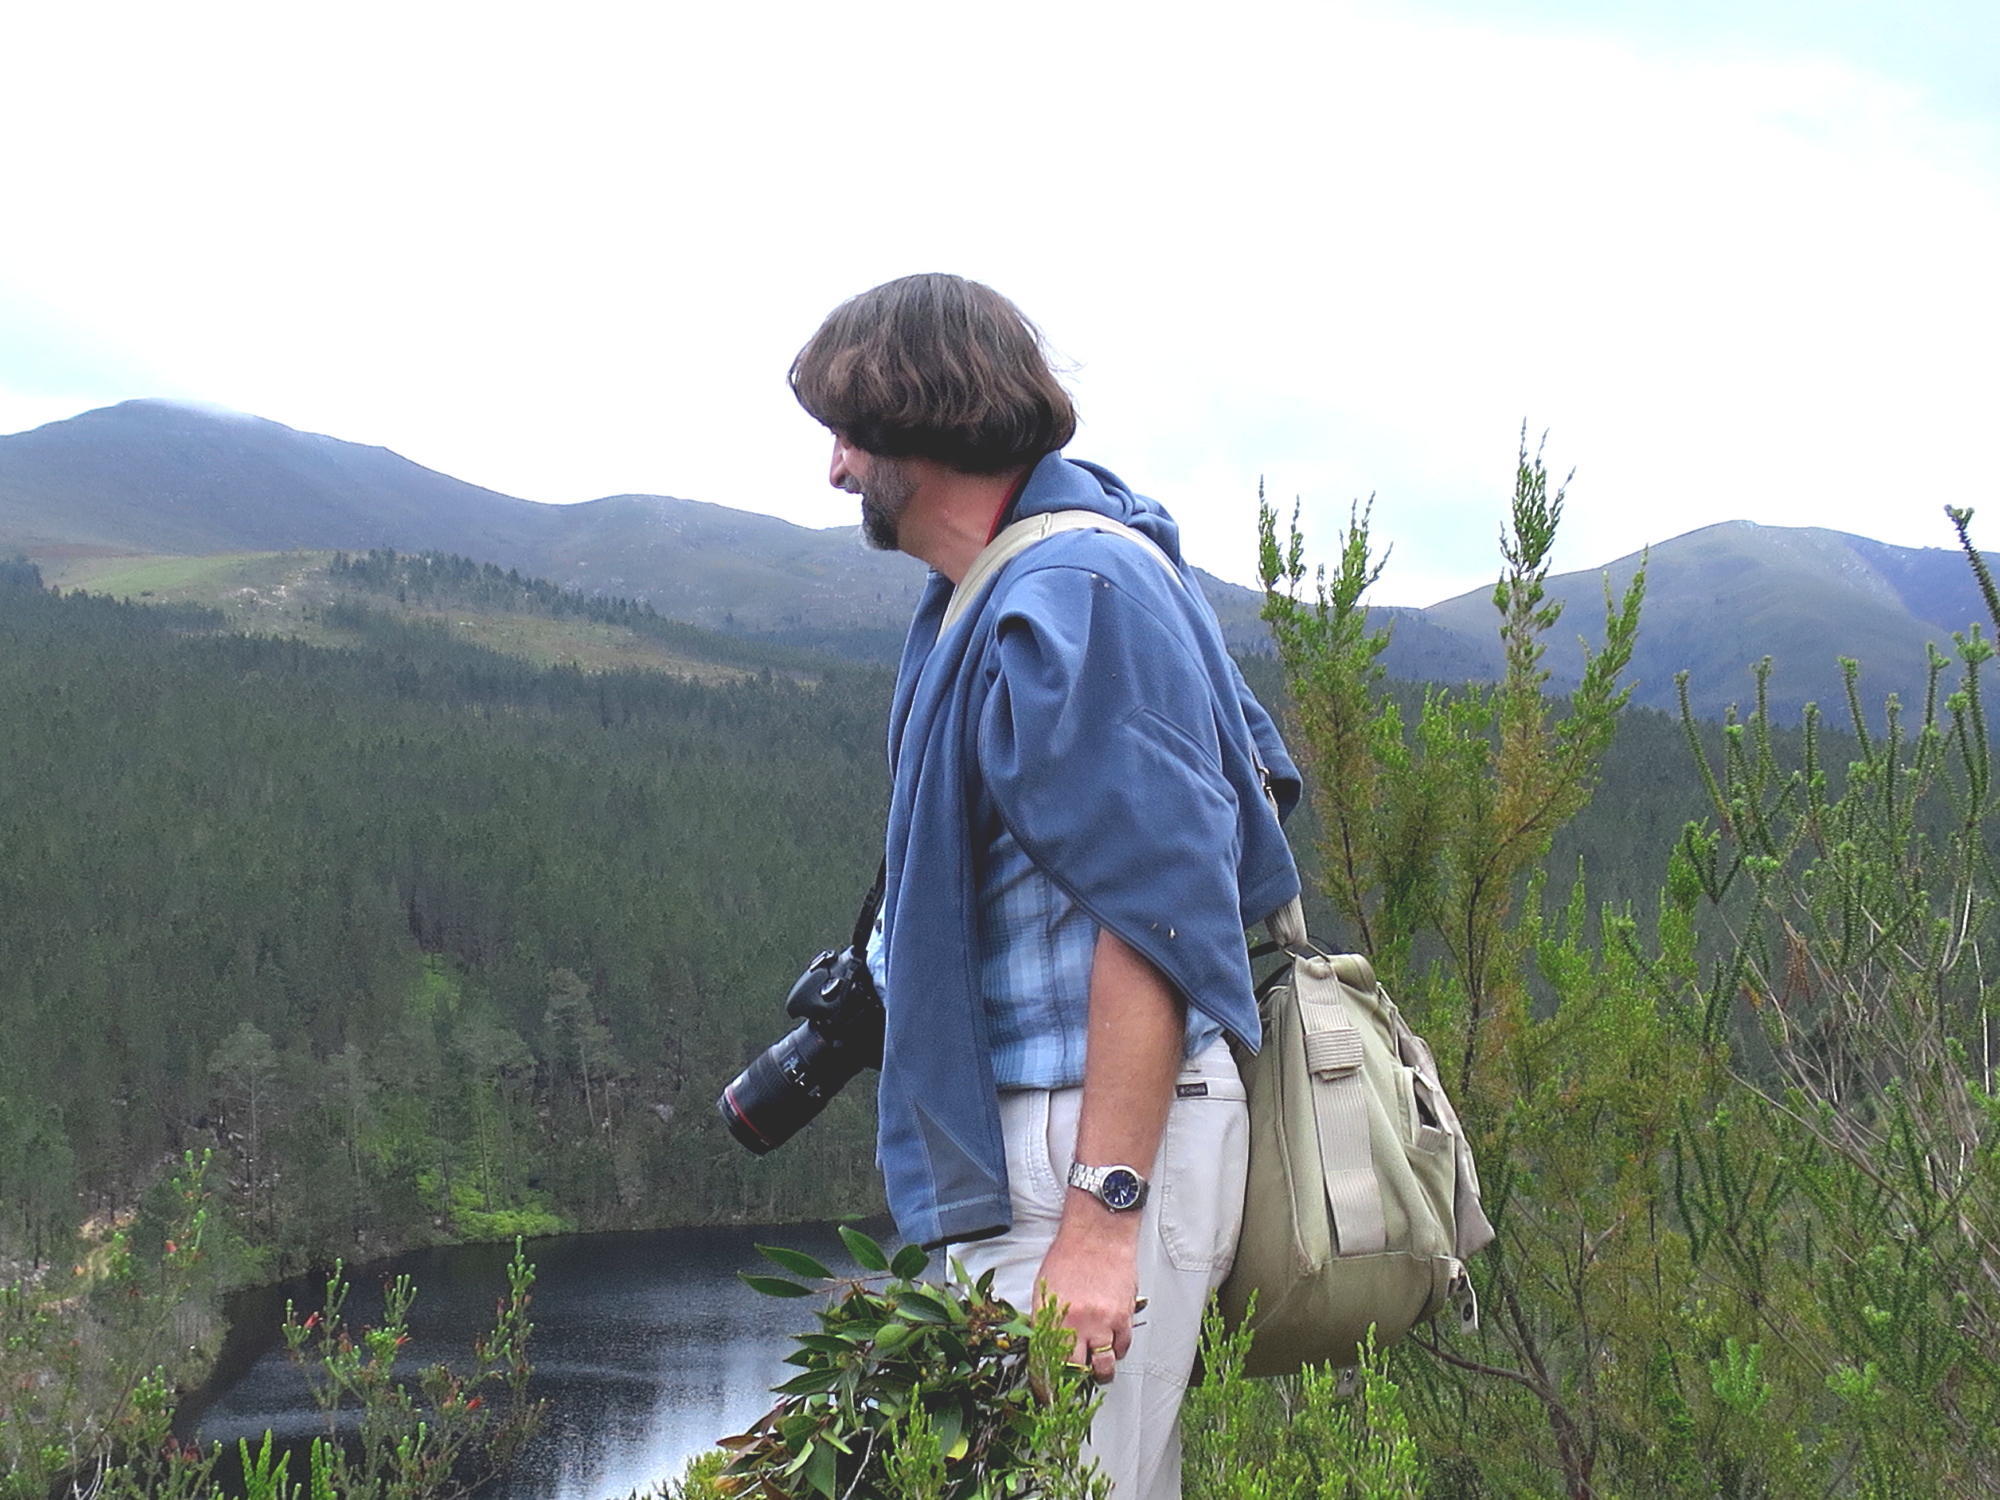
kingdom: Plantae
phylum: Tracheophyta
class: Pinopsida
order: Pinales
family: Pinaceae
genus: Pinus
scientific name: Pinus radiata
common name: Monterey pine
